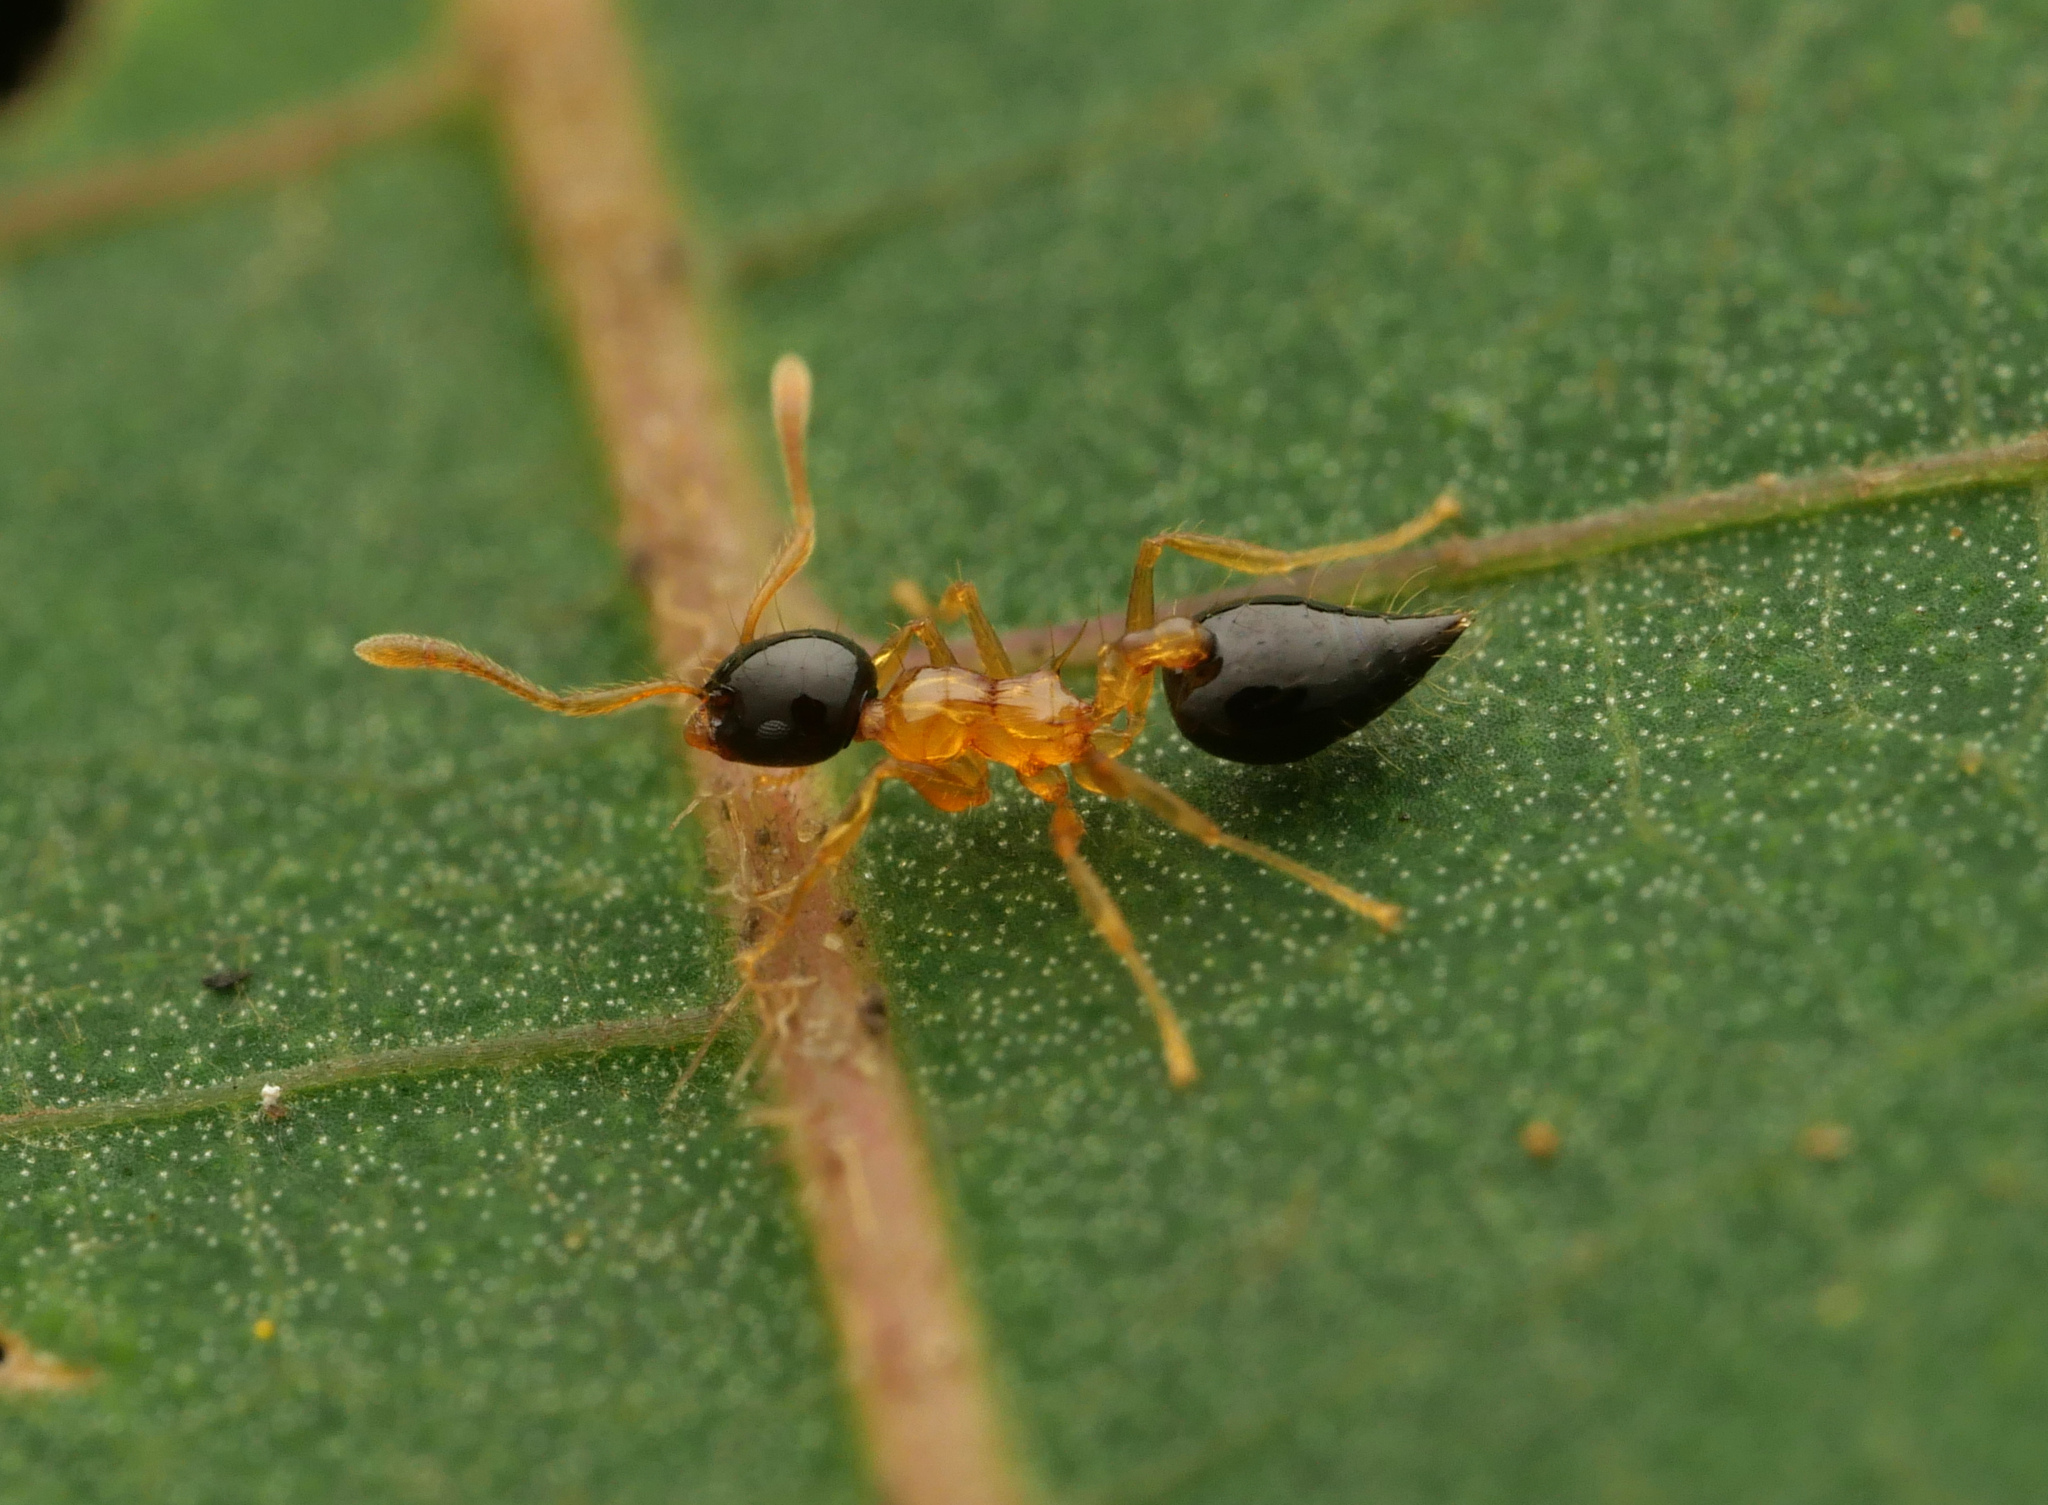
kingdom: Animalia
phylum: Arthropoda
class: Insecta
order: Hymenoptera
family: Formicidae
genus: Crematogaster
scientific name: Crematogaster emeryi
